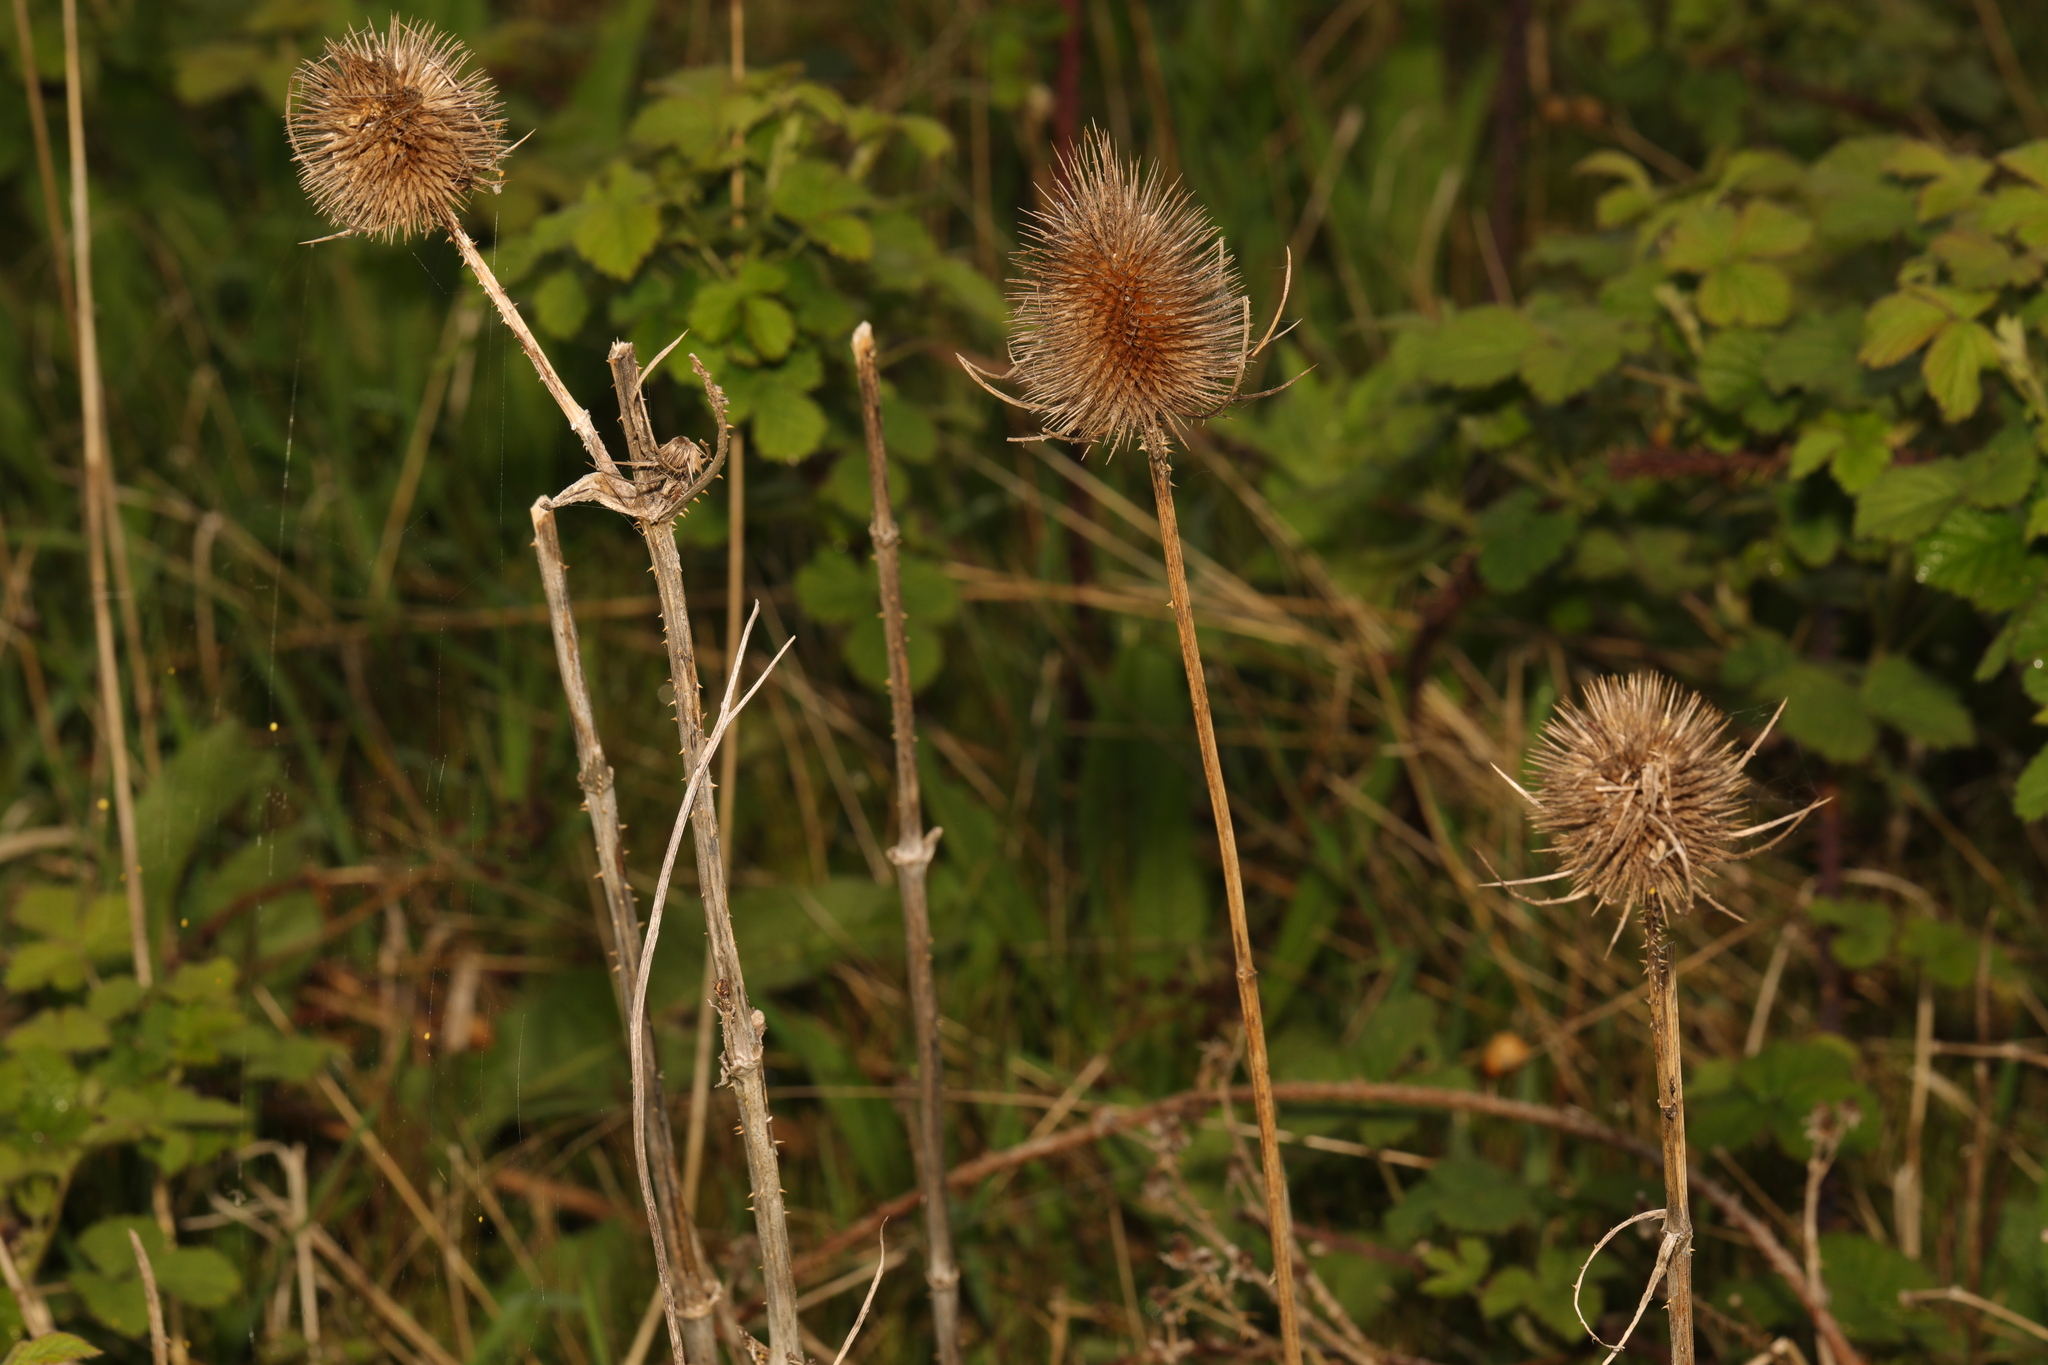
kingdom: Plantae
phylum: Tracheophyta
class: Magnoliopsida
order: Dipsacales
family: Caprifoliaceae
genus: Dipsacus
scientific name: Dipsacus fullonum
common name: Teasel
